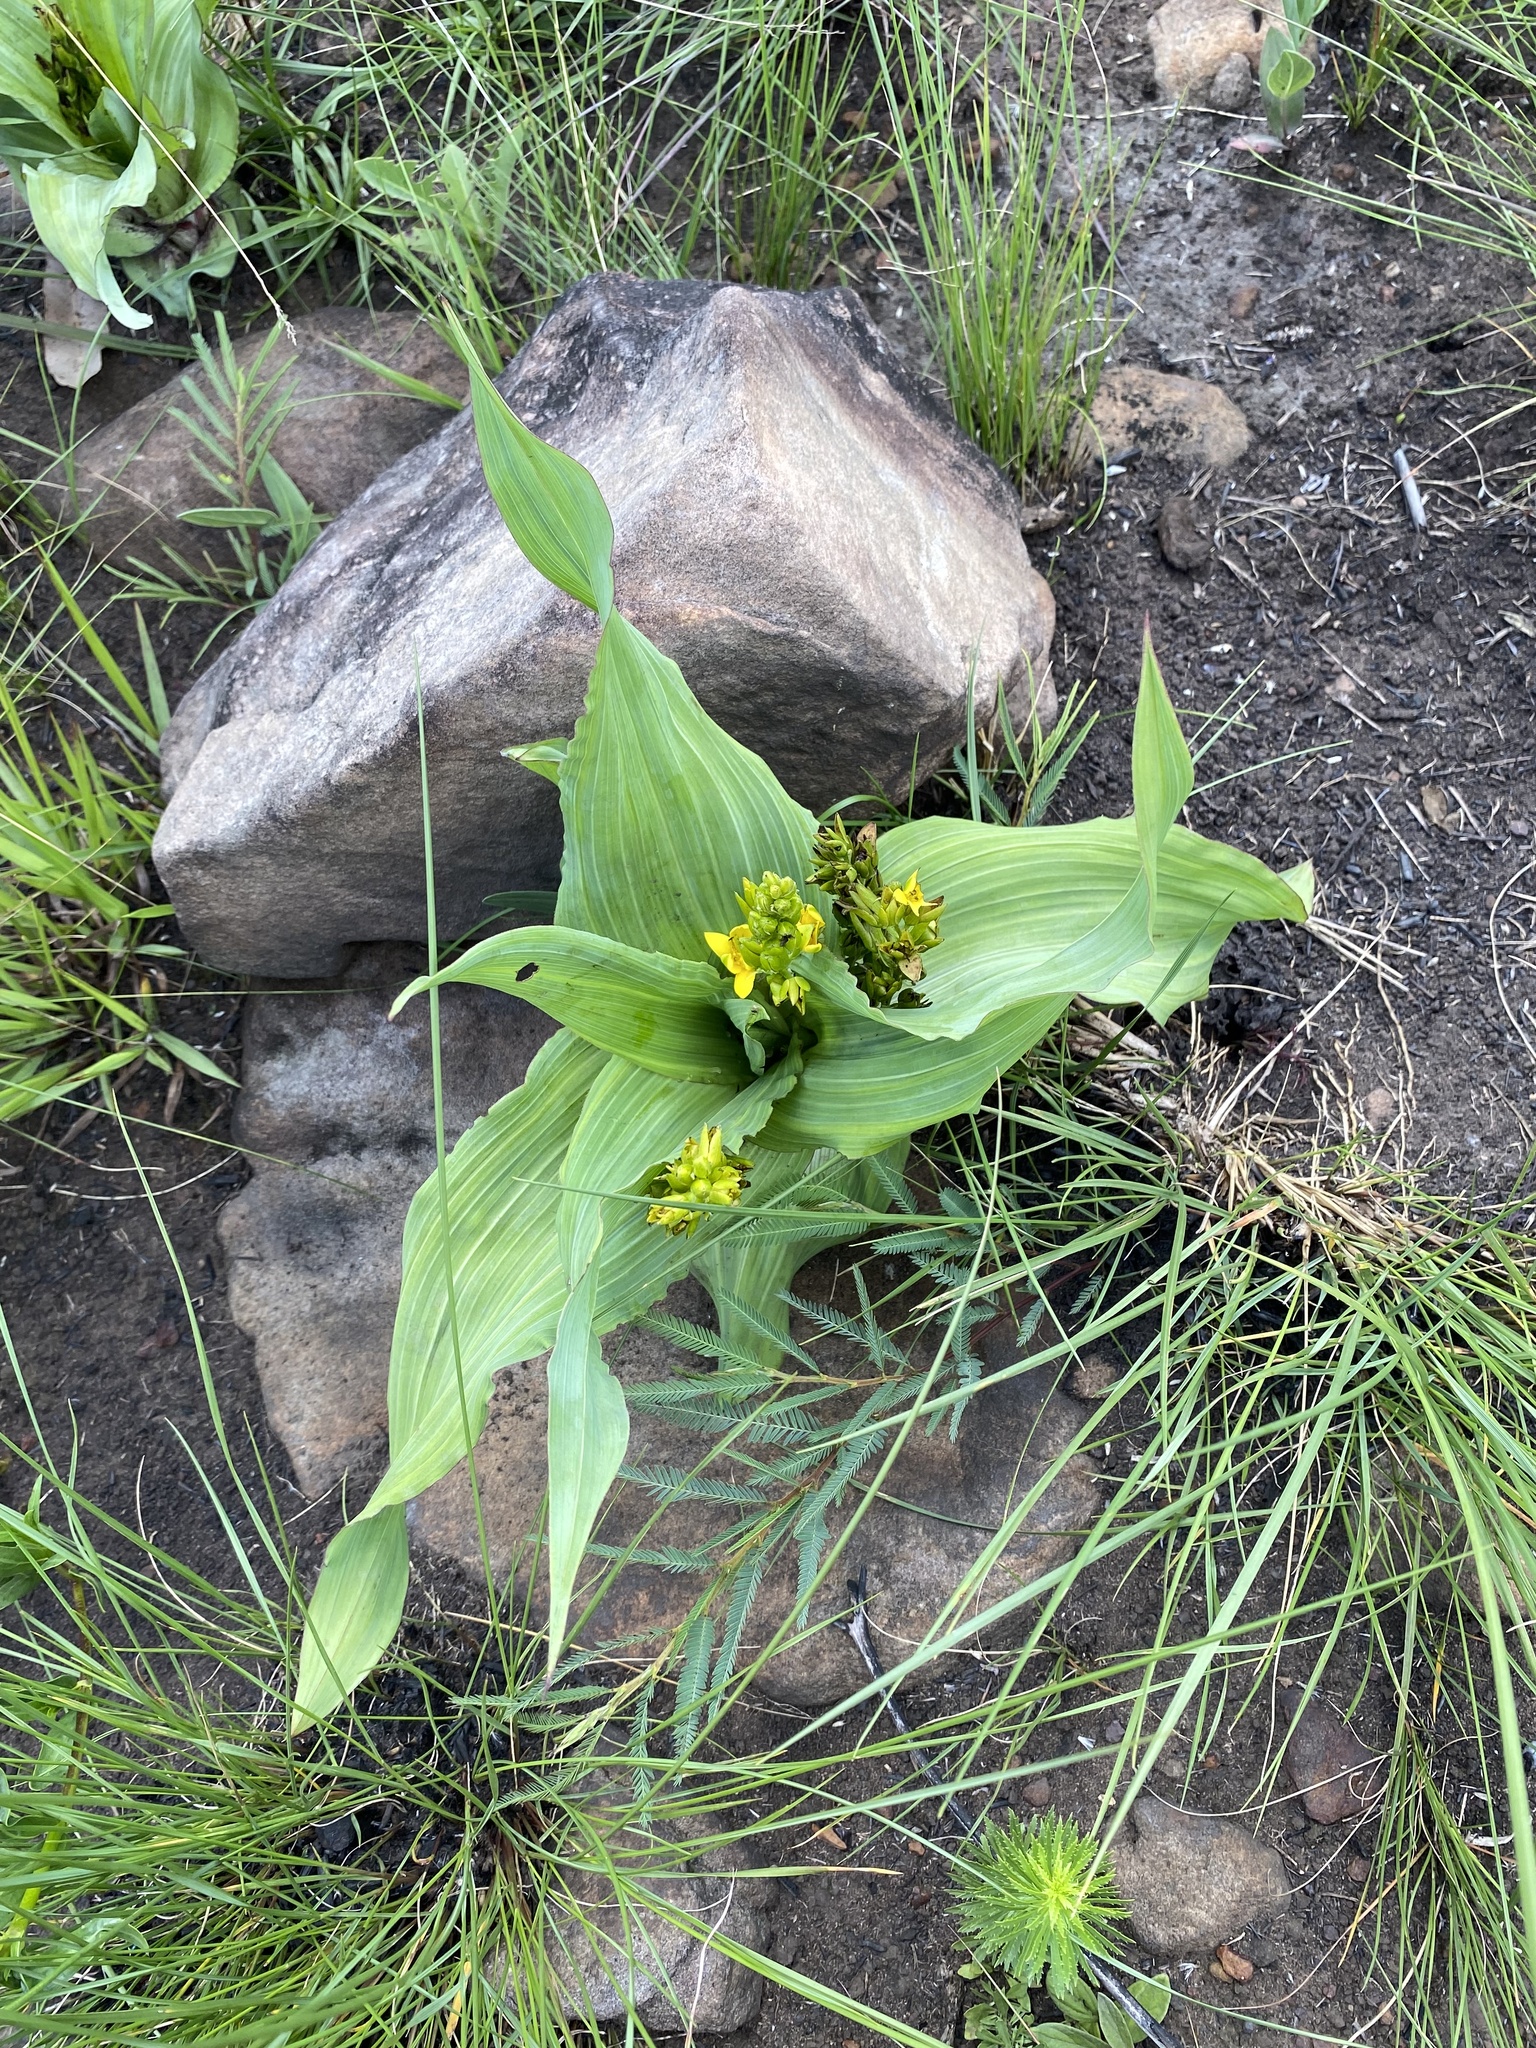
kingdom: Plantae
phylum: Tracheophyta
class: Liliopsida
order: Asparagales
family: Hypoxidaceae
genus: Hypoxis
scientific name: Hypoxis colchicifolia
